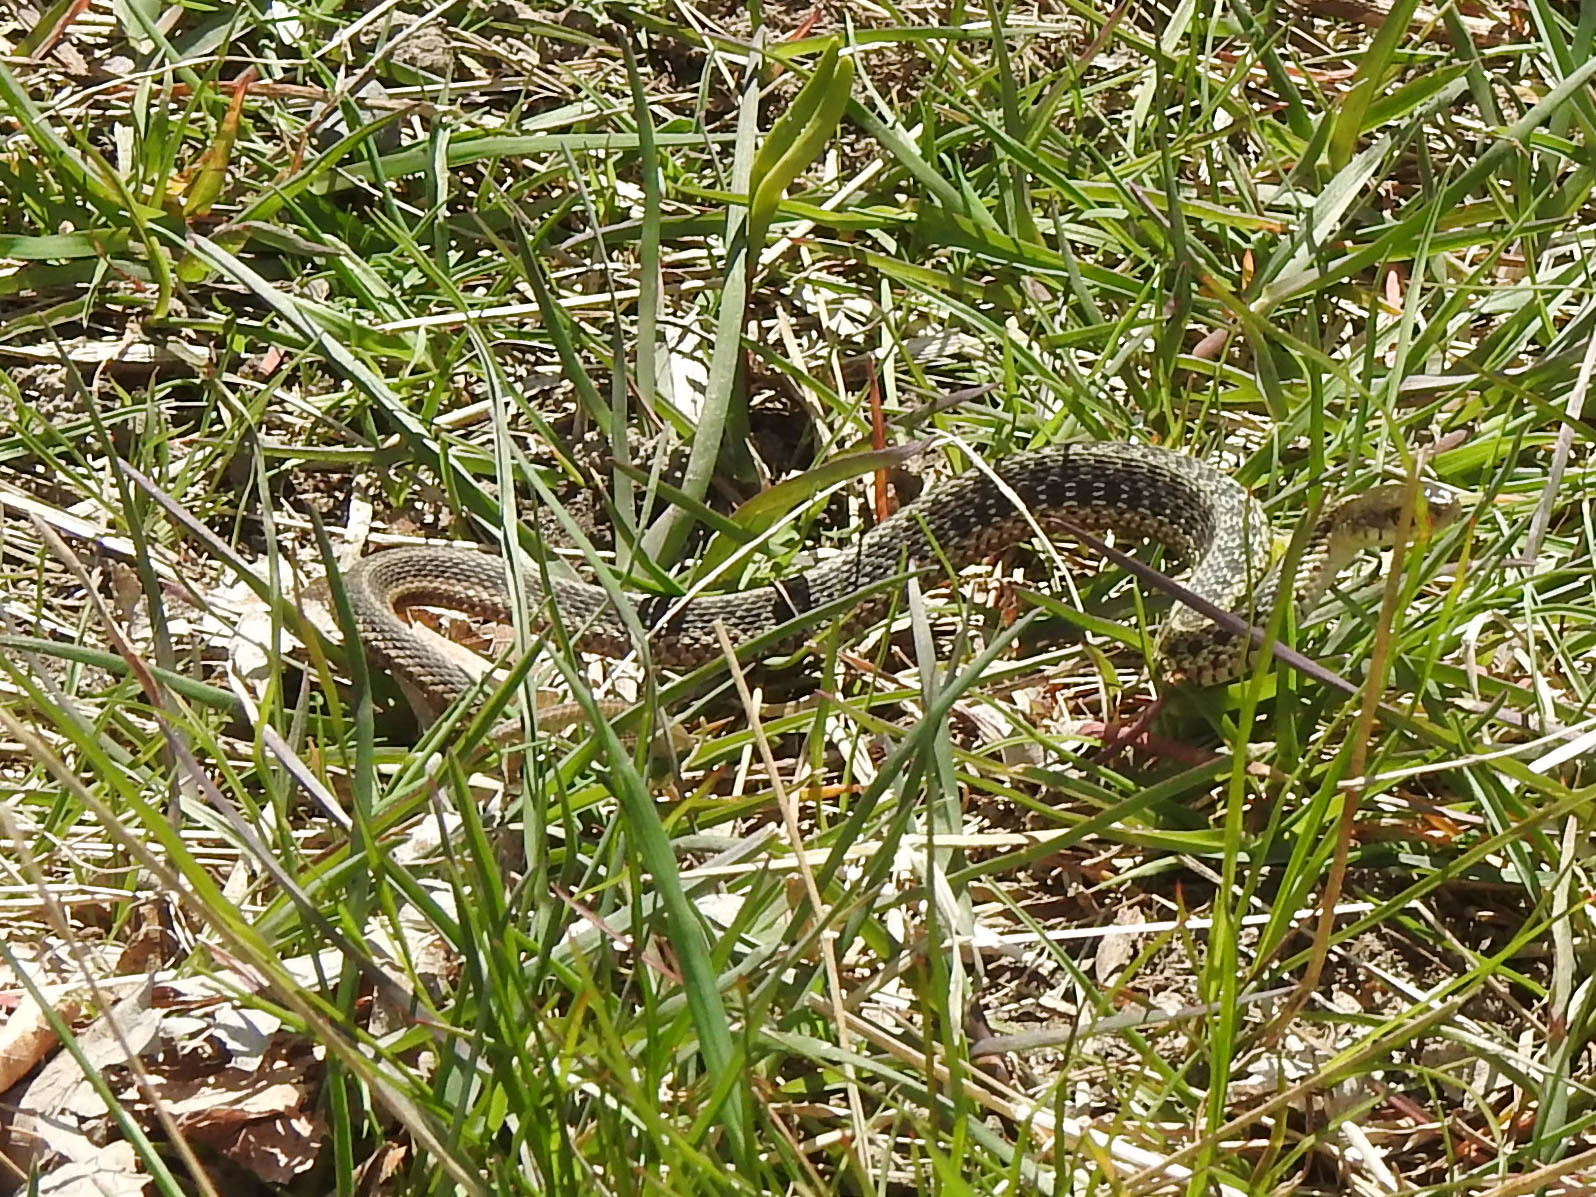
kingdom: Animalia
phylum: Chordata
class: Squamata
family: Colubridae
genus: Thamnophis
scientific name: Thamnophis sirtalis
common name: Common garter snake
